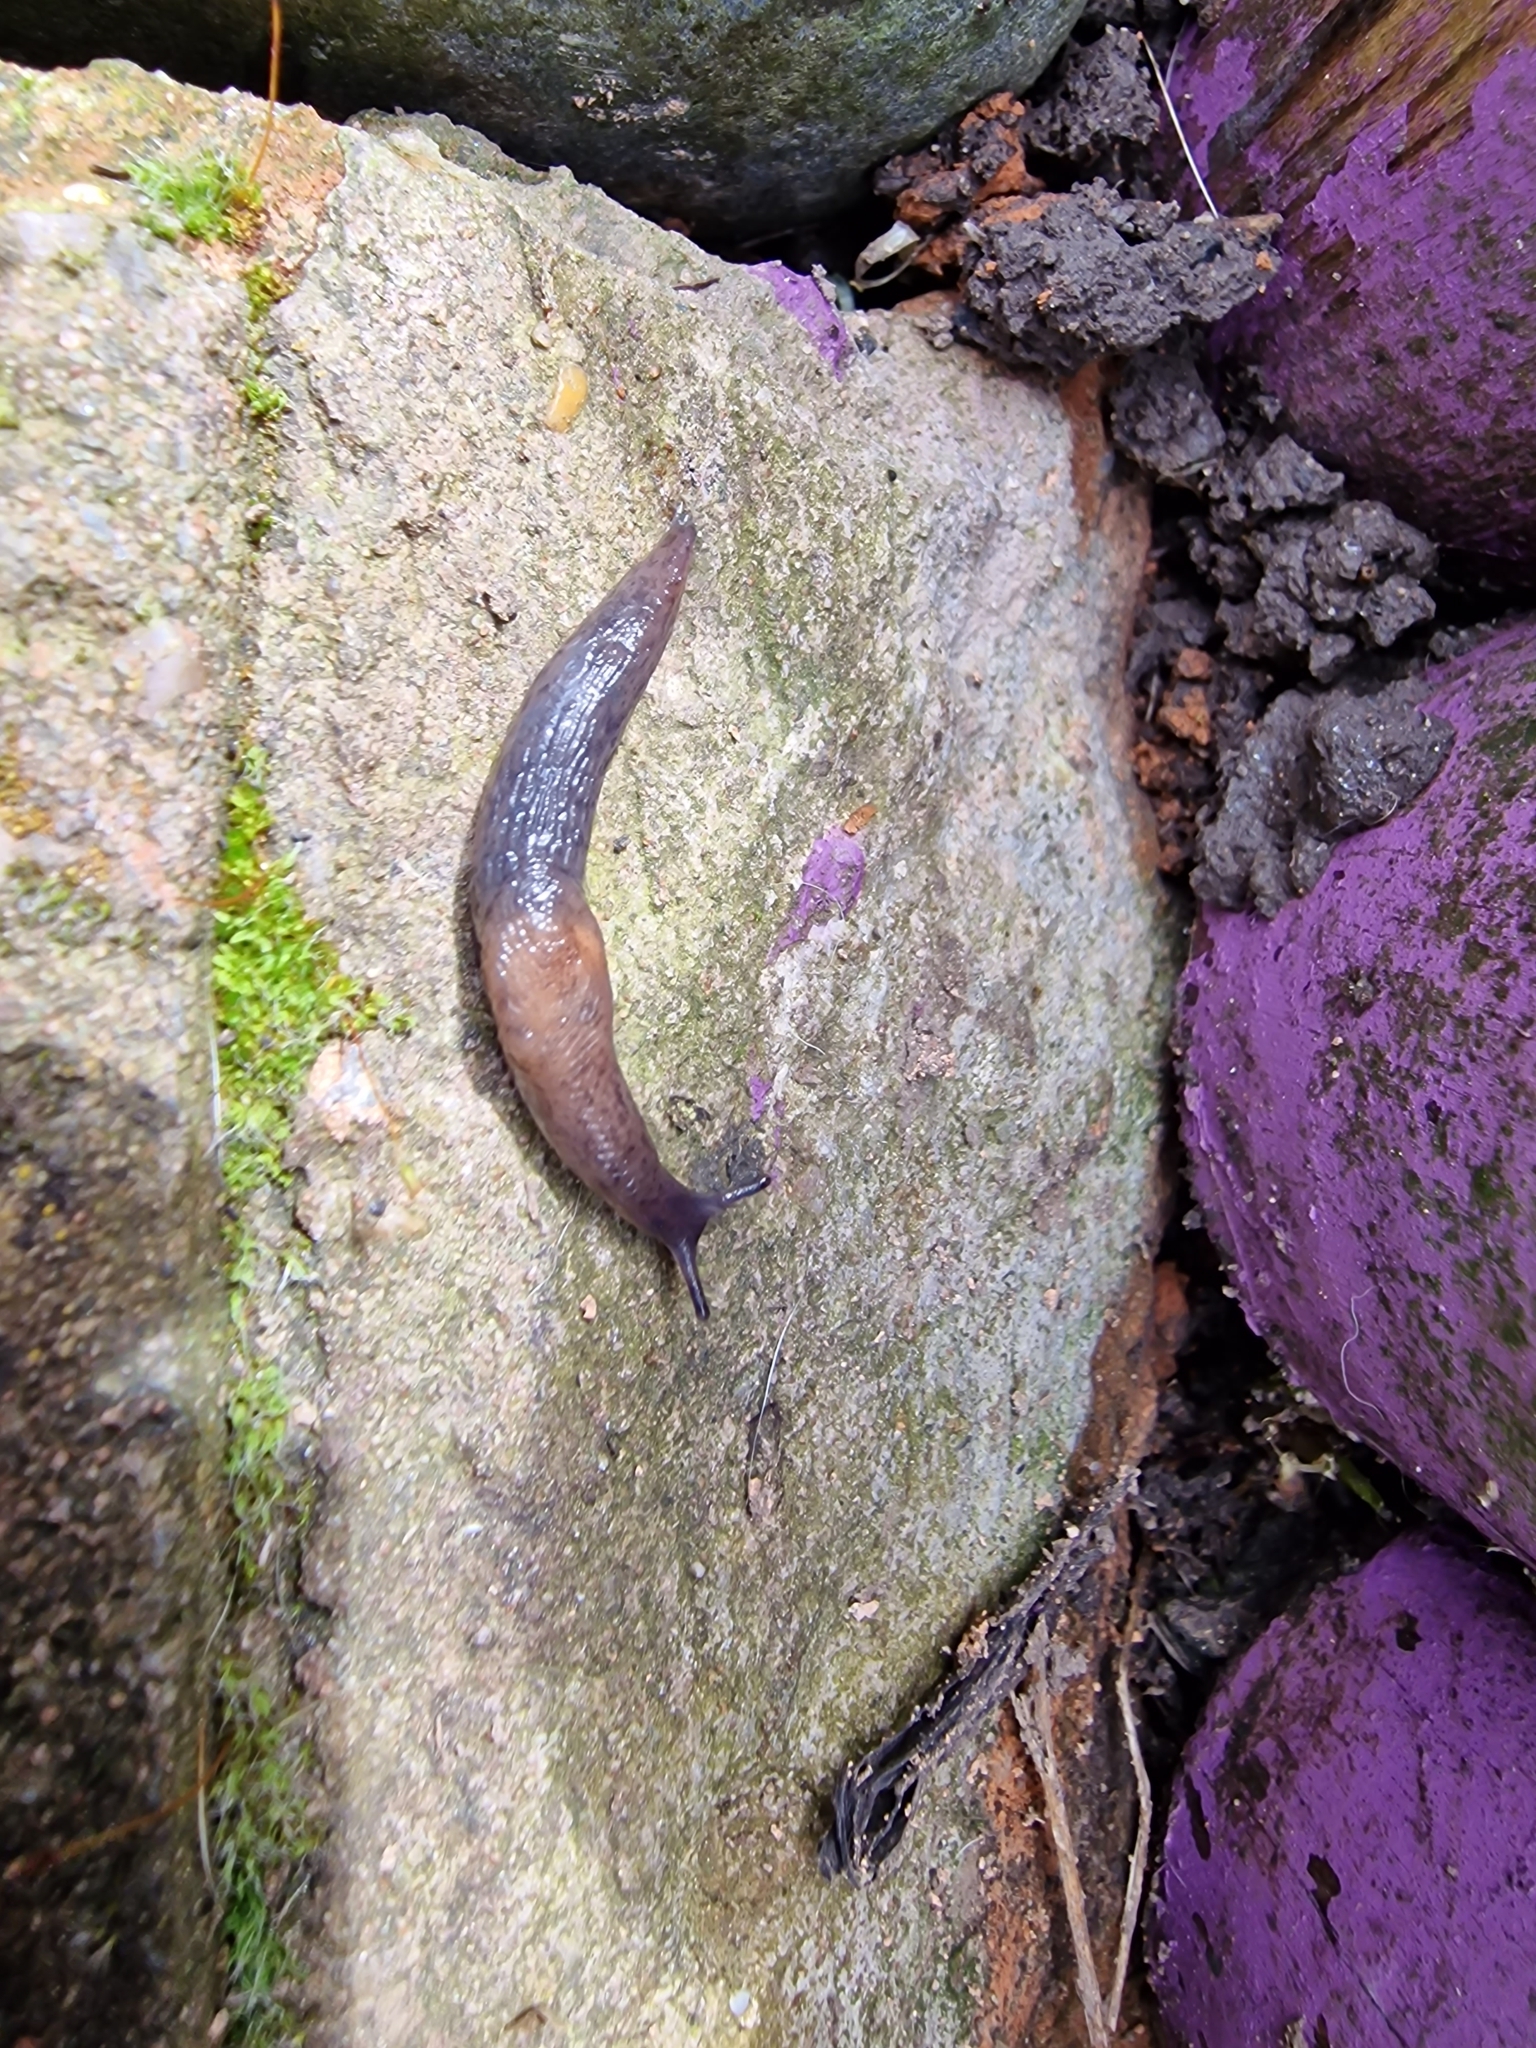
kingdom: Animalia
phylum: Mollusca
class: Gastropoda
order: Stylommatophora
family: Agriolimacidae
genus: Deroceras
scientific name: Deroceras invadens
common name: Caruana's slug
